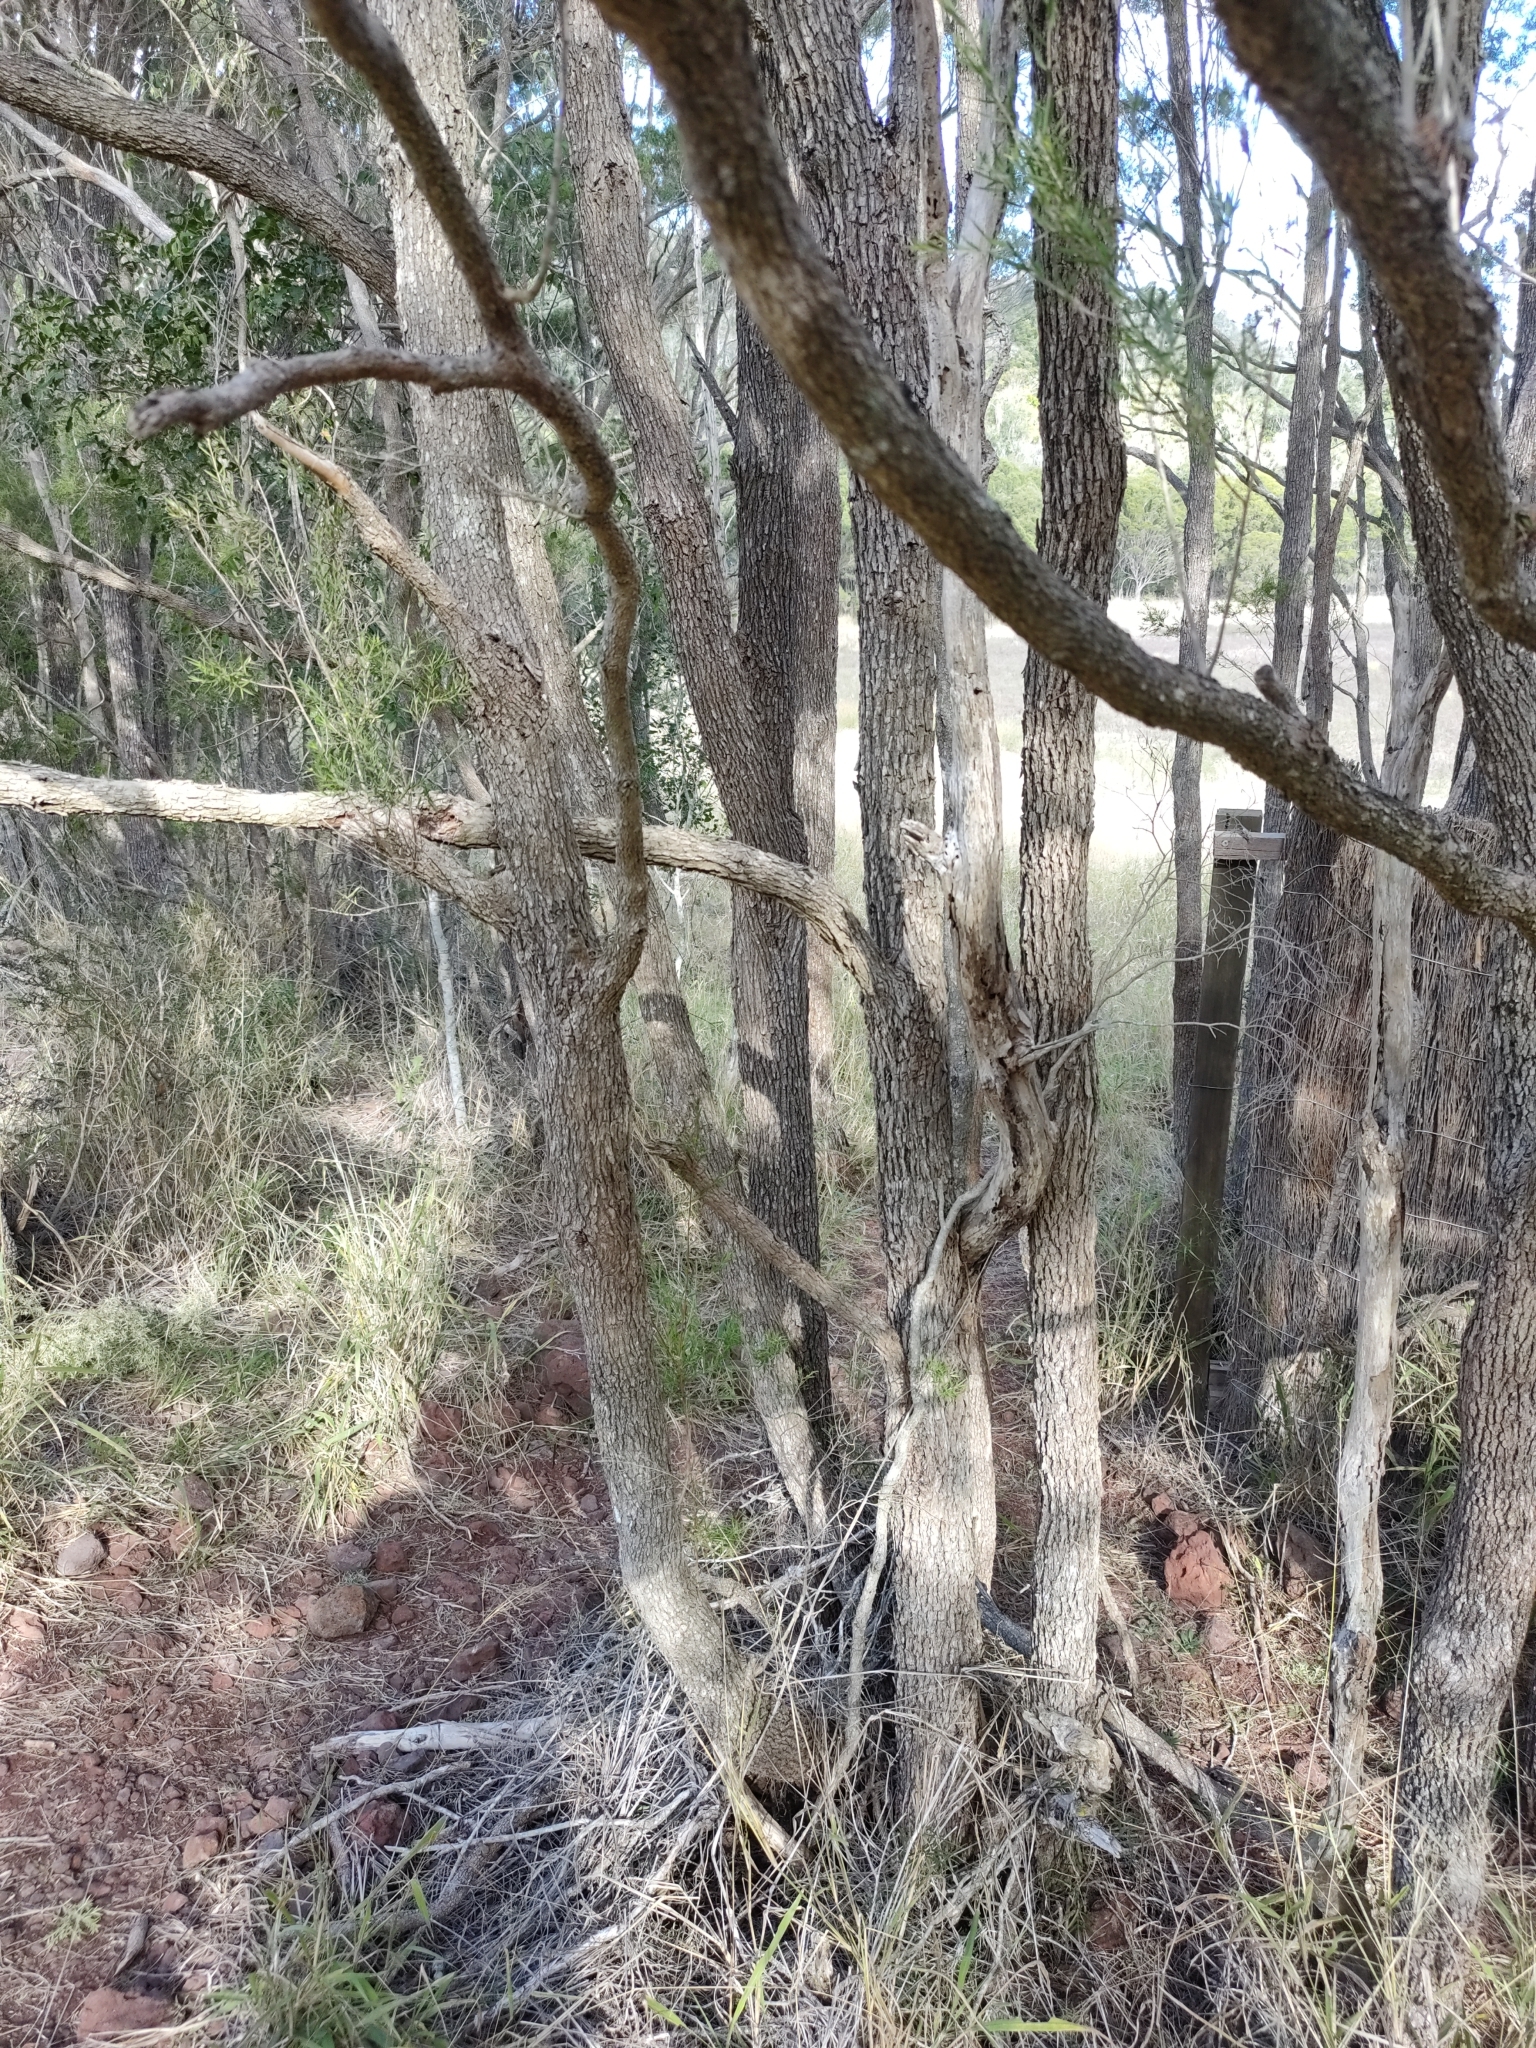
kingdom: Plantae
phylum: Tracheophyta
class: Magnoliopsida
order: Myrtales
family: Myrtaceae
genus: Melaleuca
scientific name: Melaleuca bracteata
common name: Black tea-tree
